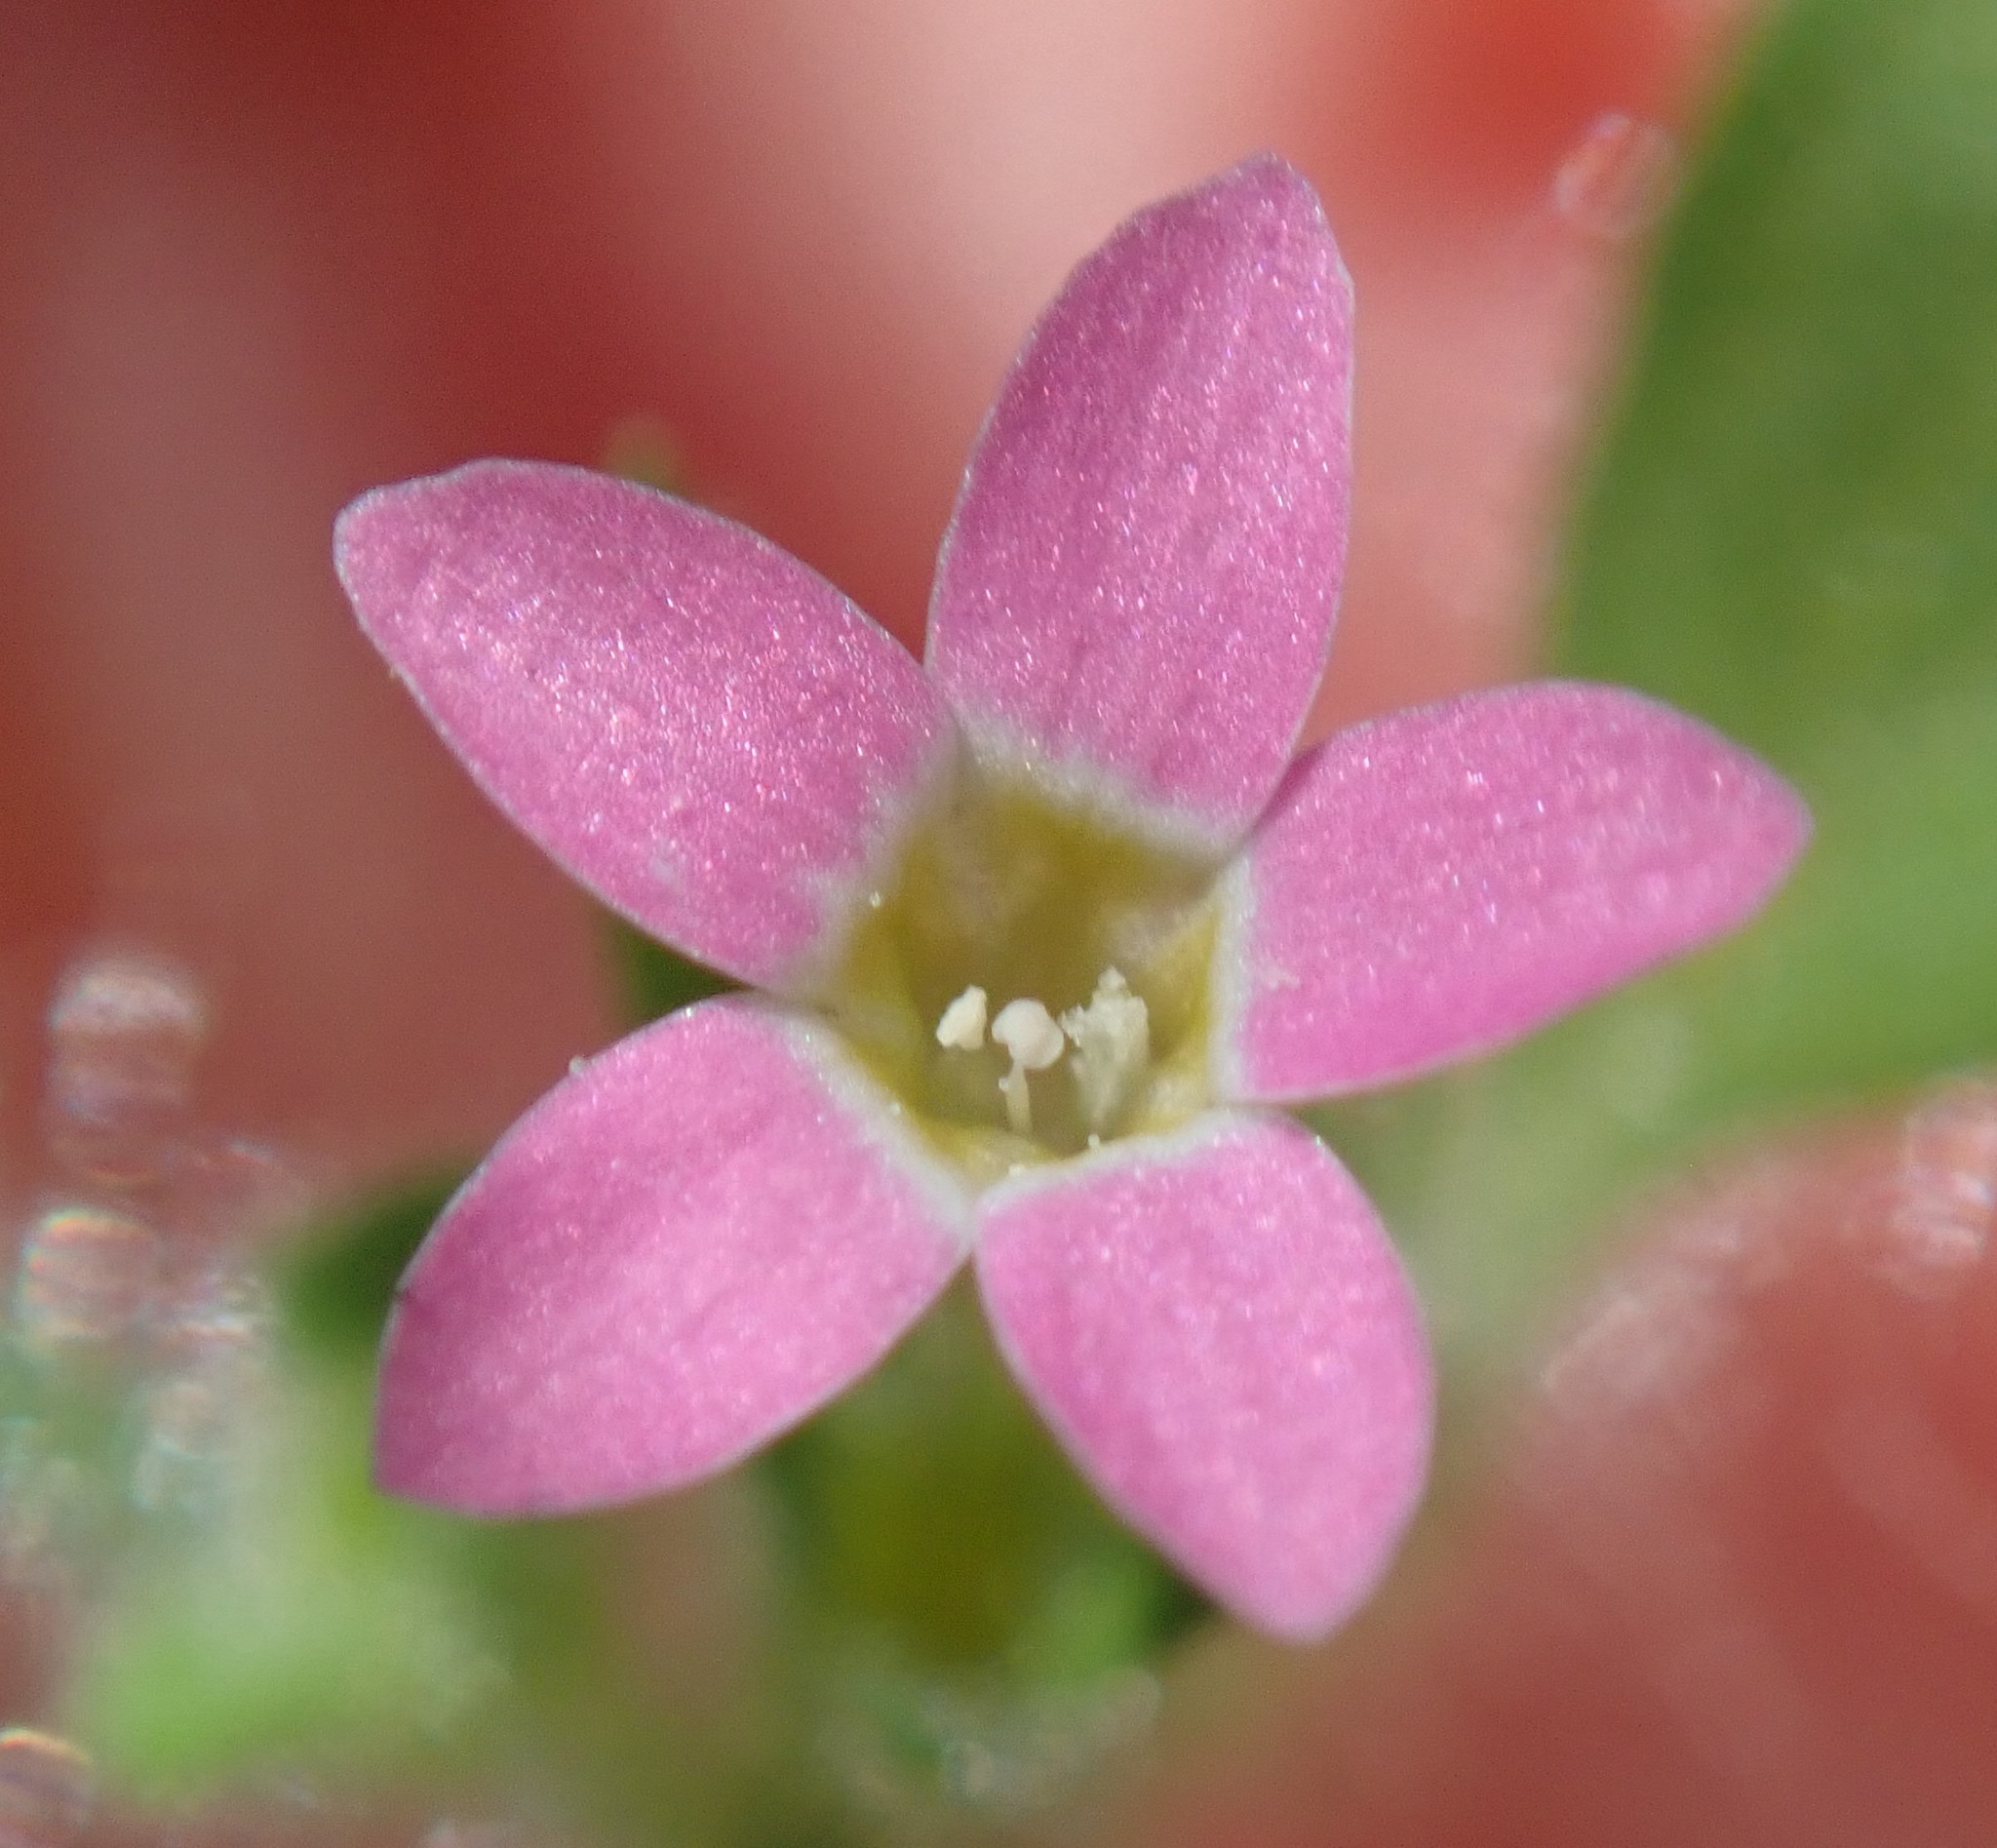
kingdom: Plantae
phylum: Tracheophyta
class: Magnoliopsida
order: Ericales
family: Polemoniaceae
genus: Collomia
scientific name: Collomia heterophylla
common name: Variable-leaved collomia
